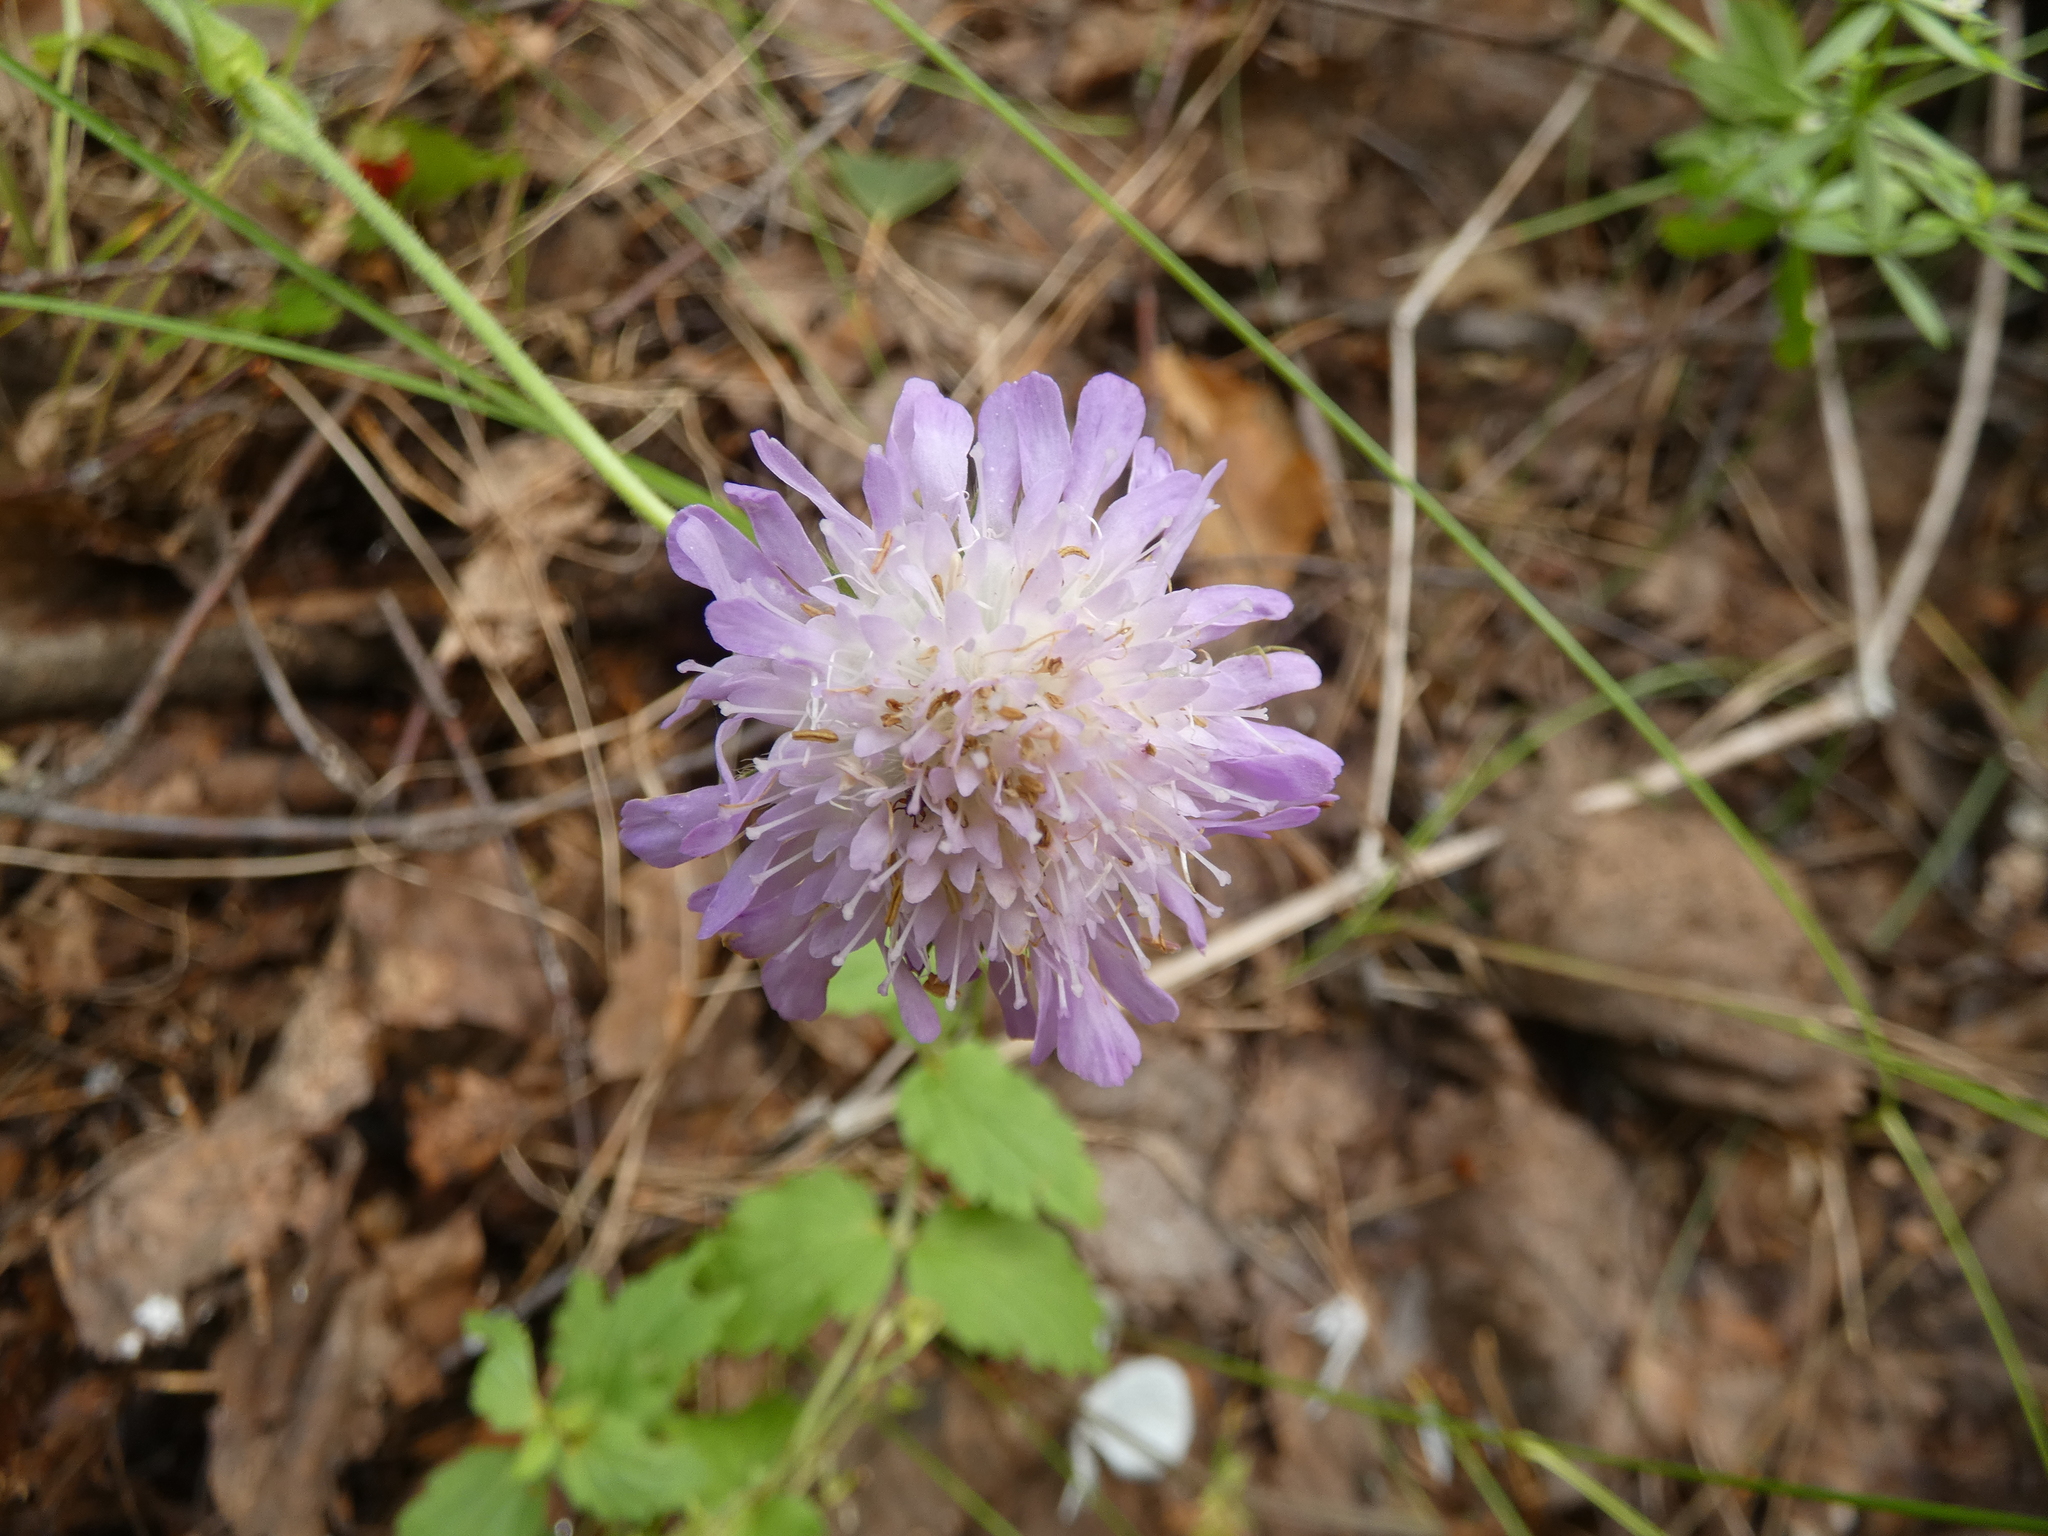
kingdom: Plantae
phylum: Tracheophyta
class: Magnoliopsida
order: Dipsacales
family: Caprifoliaceae
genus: Knautia
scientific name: Knautia arvensis
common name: Field scabiosa
